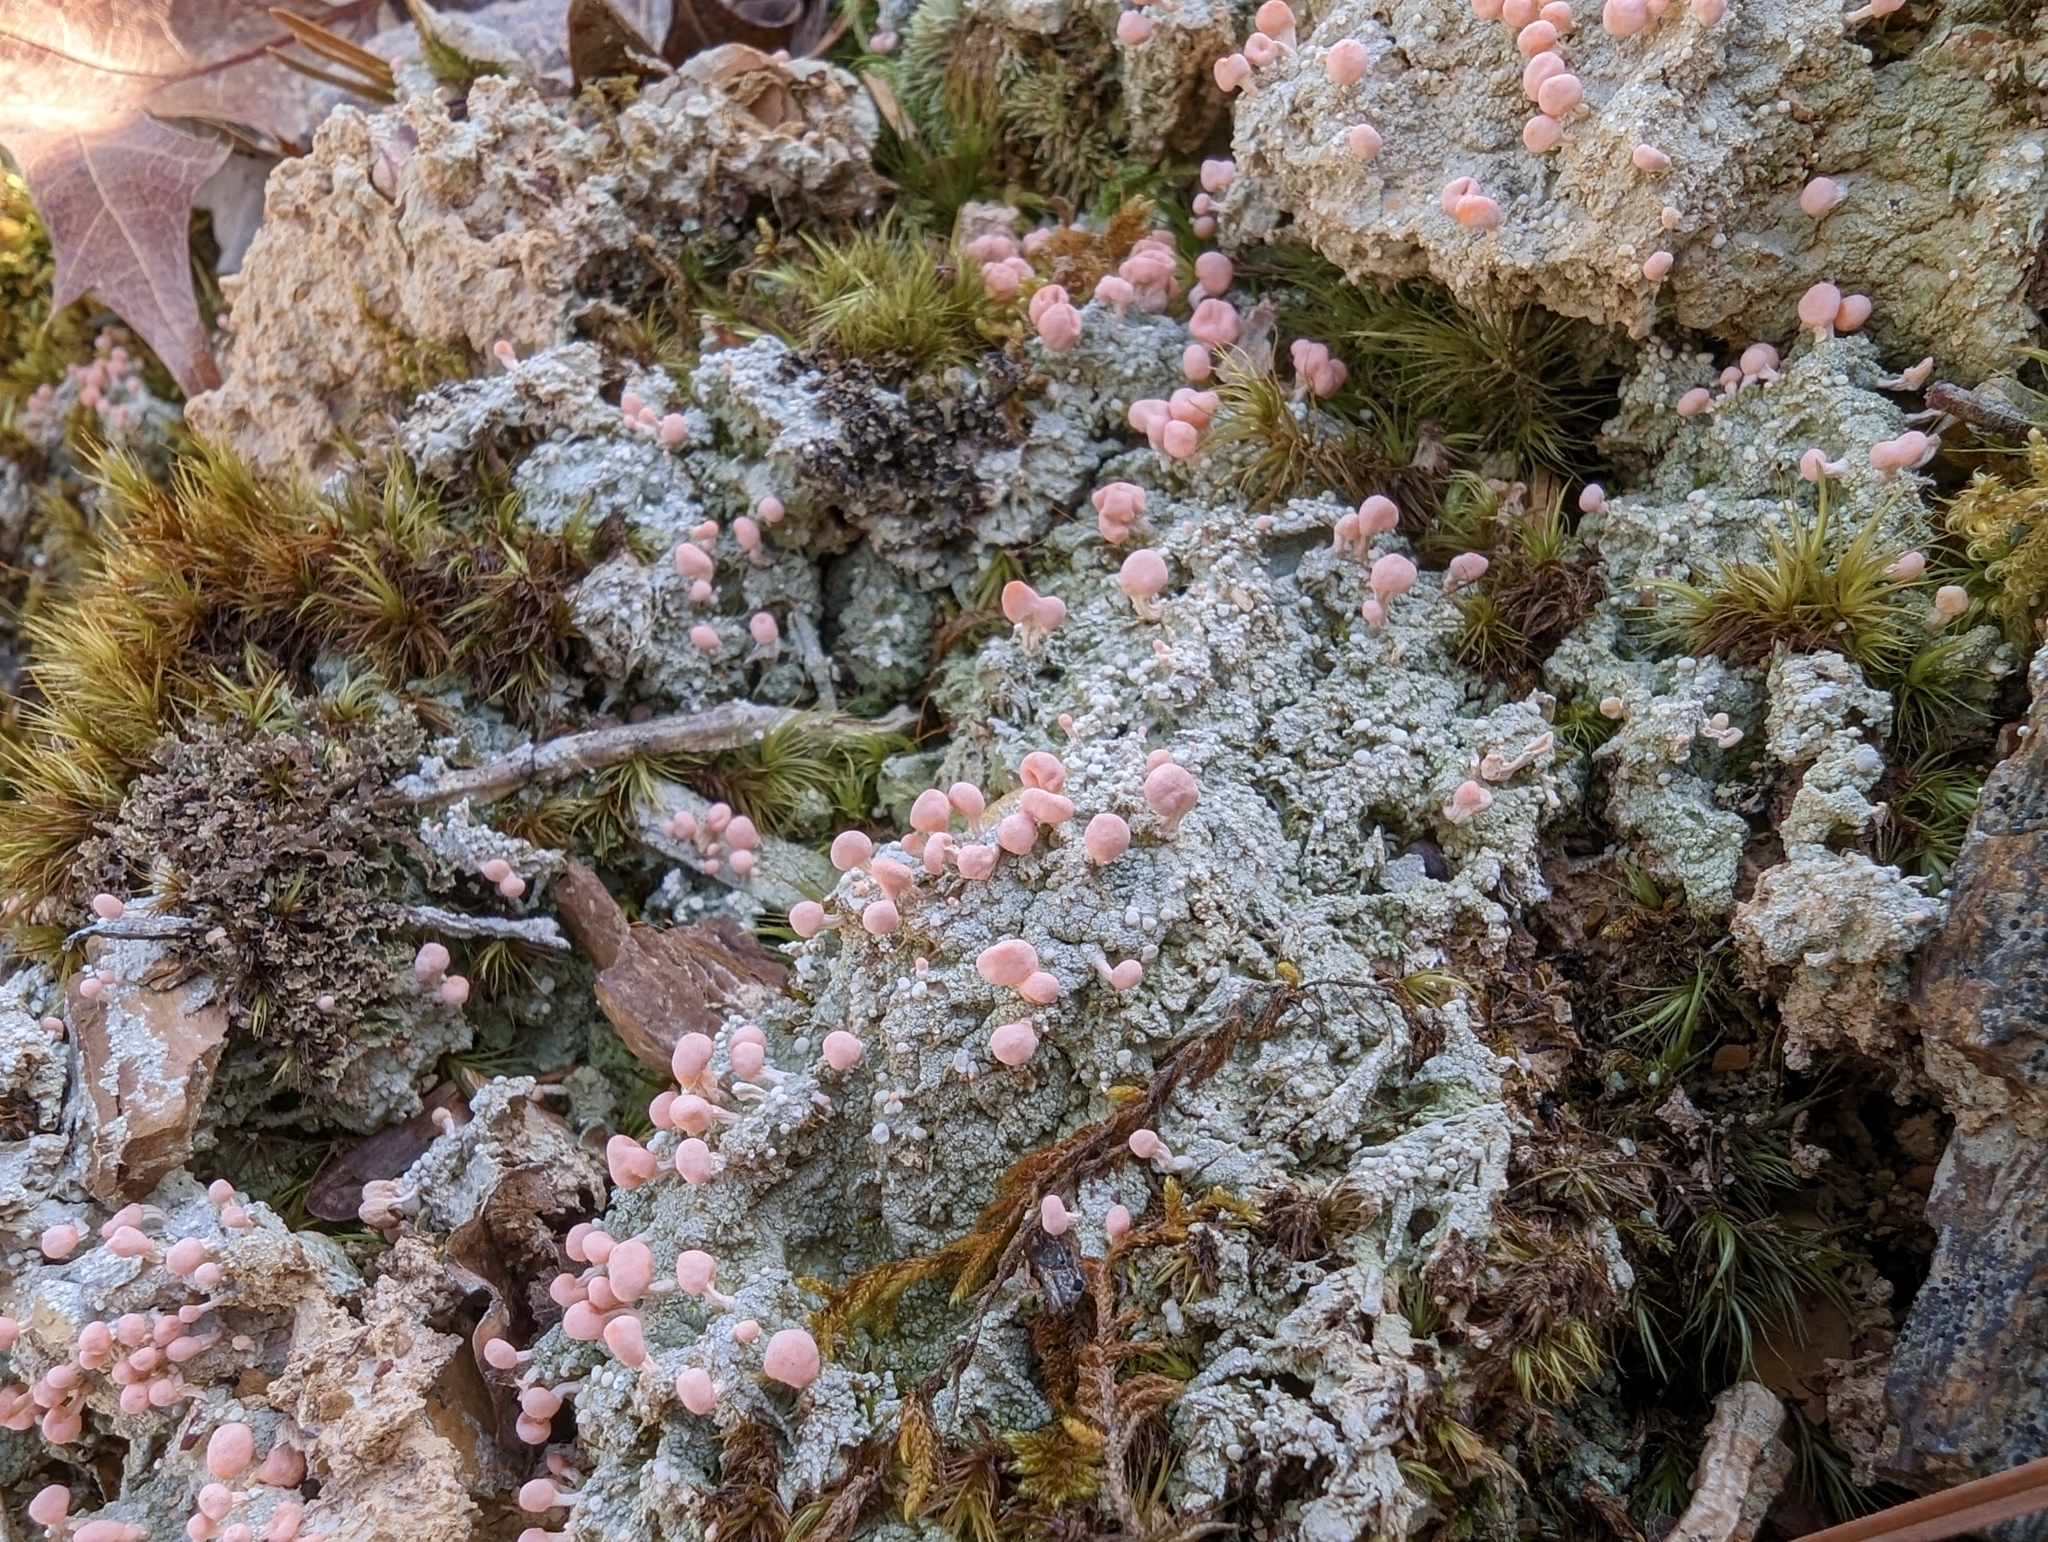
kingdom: Fungi
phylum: Ascomycota
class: Lecanoromycetes
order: Pertusariales
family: Icmadophilaceae
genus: Dibaeis
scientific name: Dibaeis baeomyces
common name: Pink earth lichen
